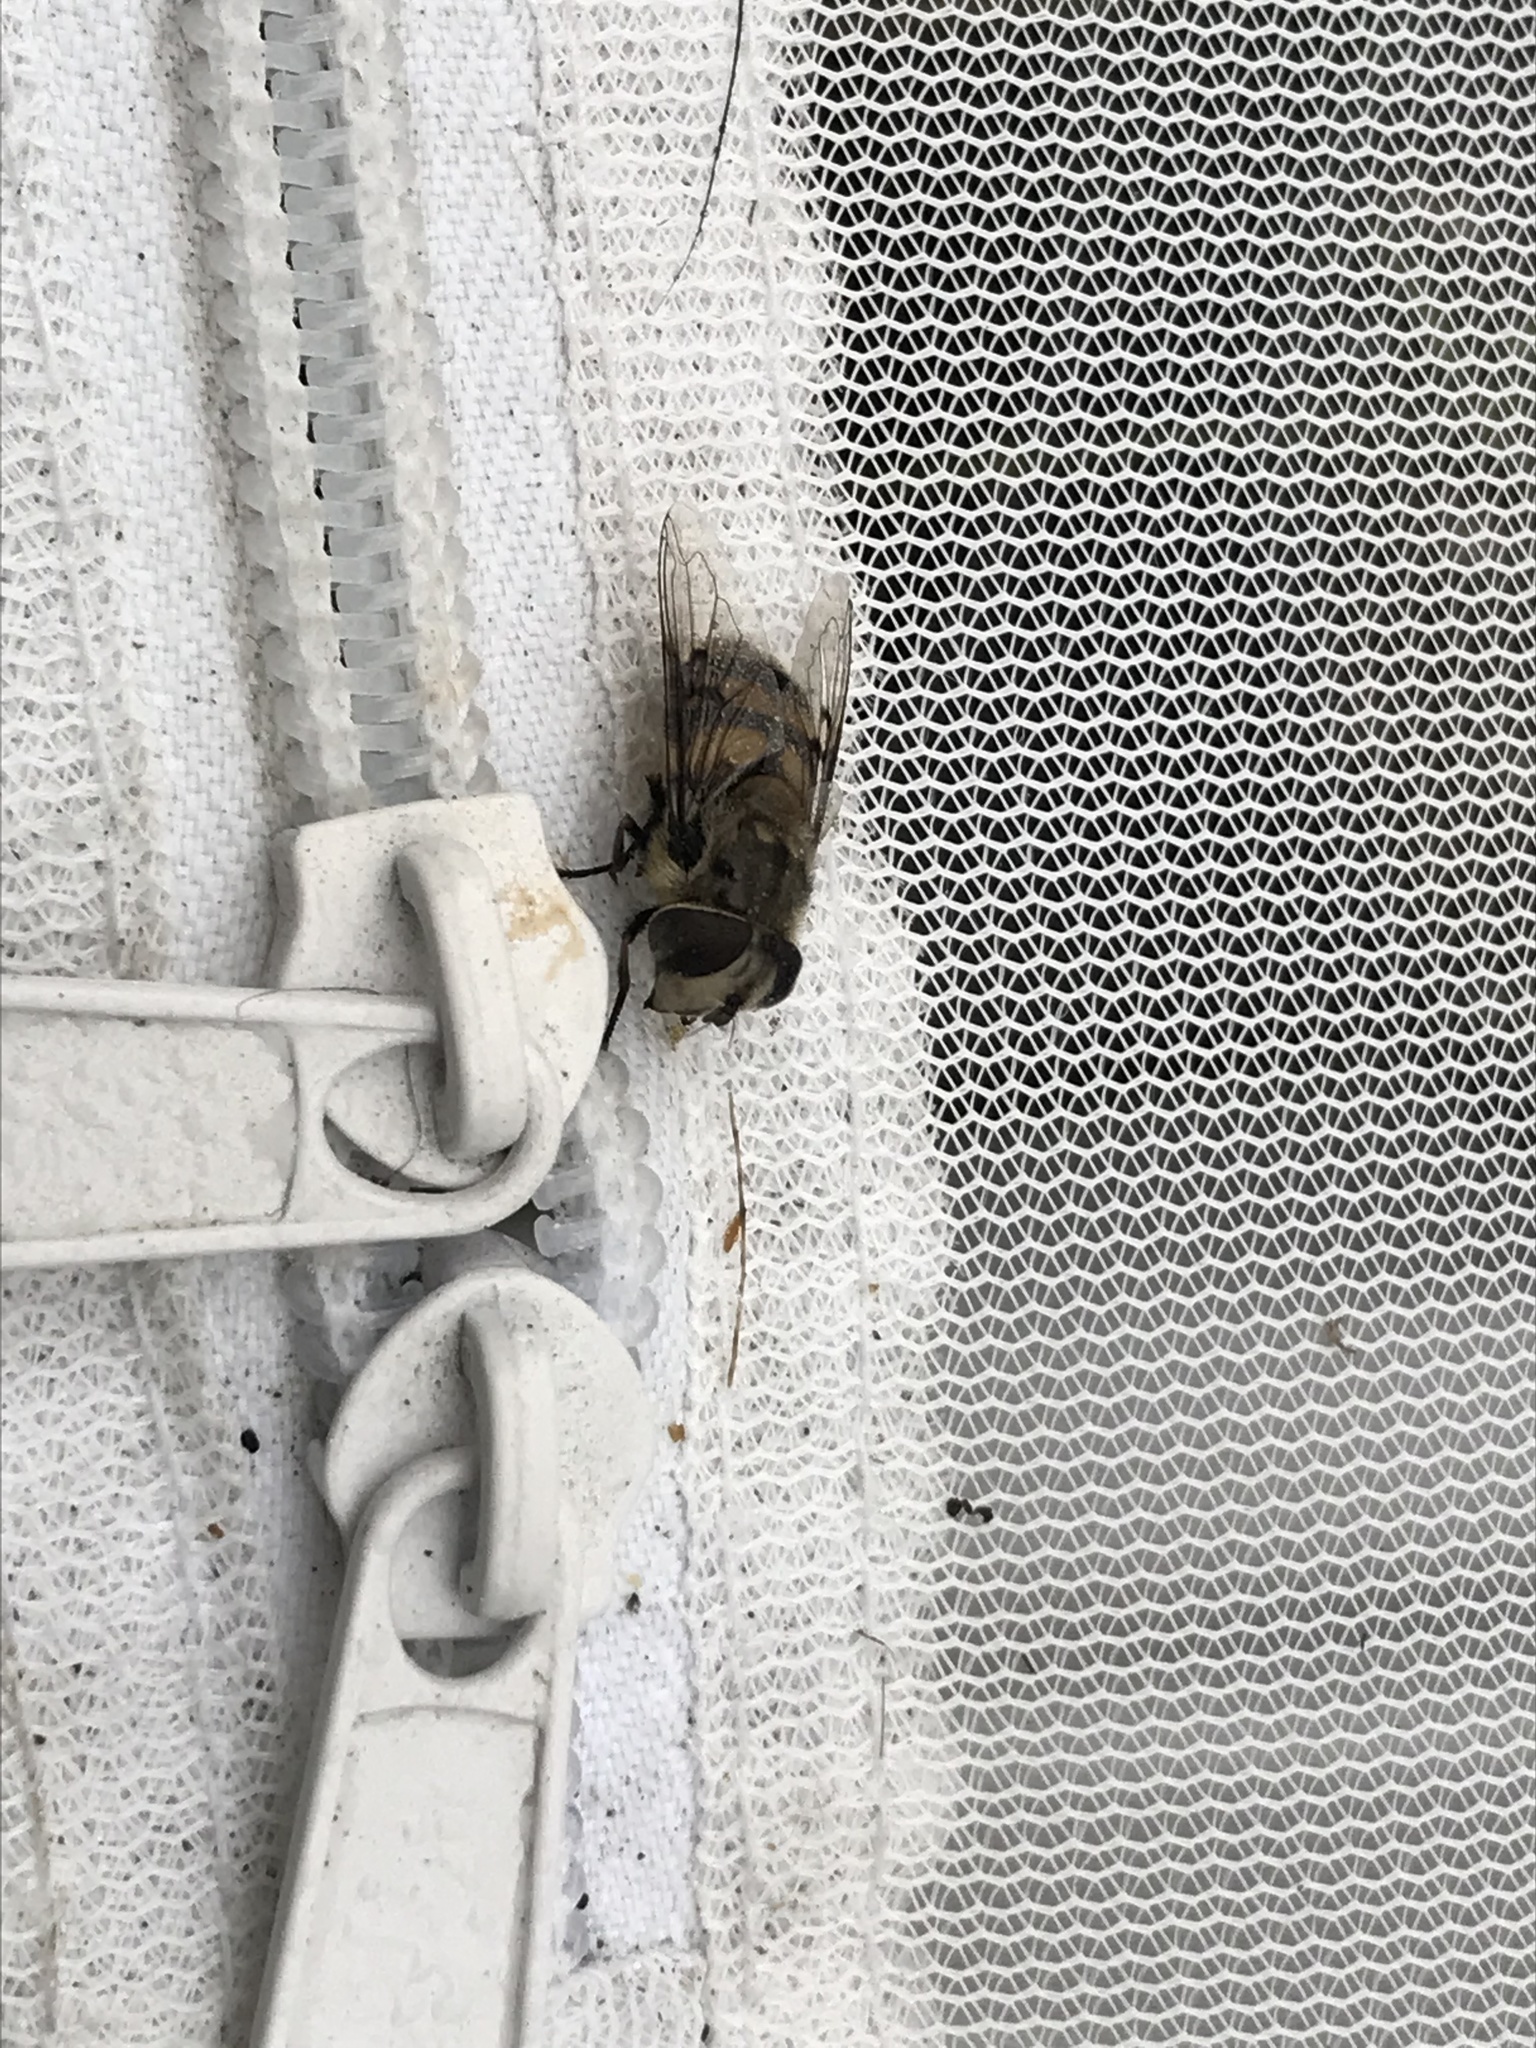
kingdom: Animalia
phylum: Arthropoda
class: Insecta
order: Diptera
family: Syrphidae
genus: Copestylum
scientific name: Copestylum avidum
